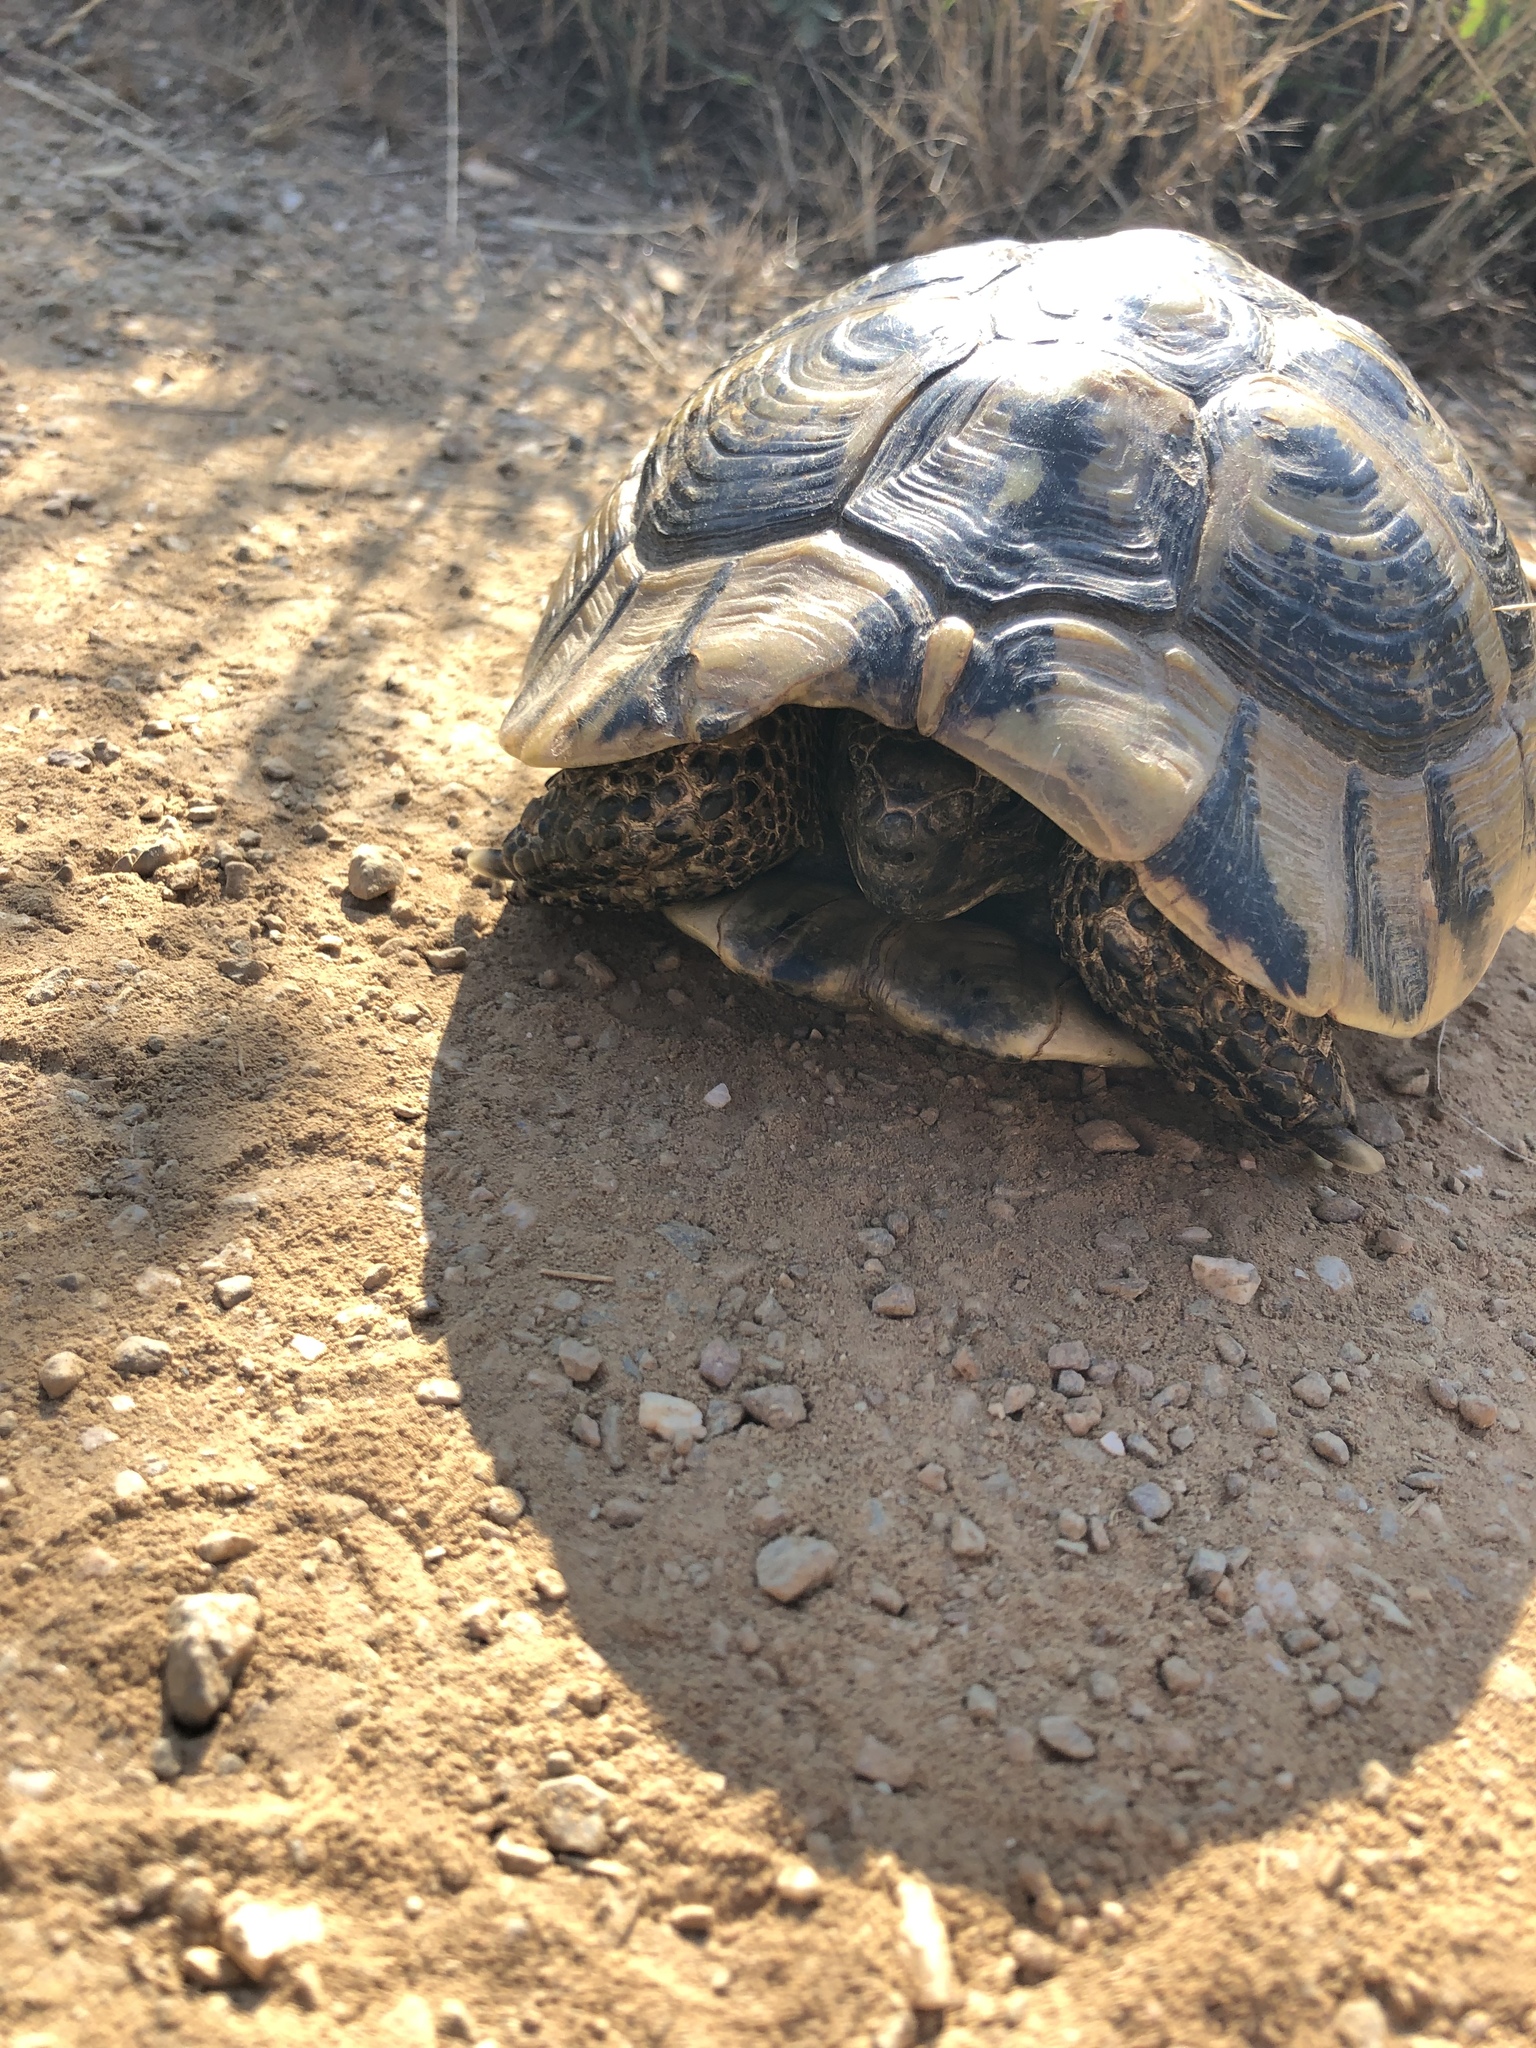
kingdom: Animalia
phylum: Chordata
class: Testudines
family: Testudinidae
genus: Testudo
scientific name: Testudo hermanni
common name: Hermann's tortoise
